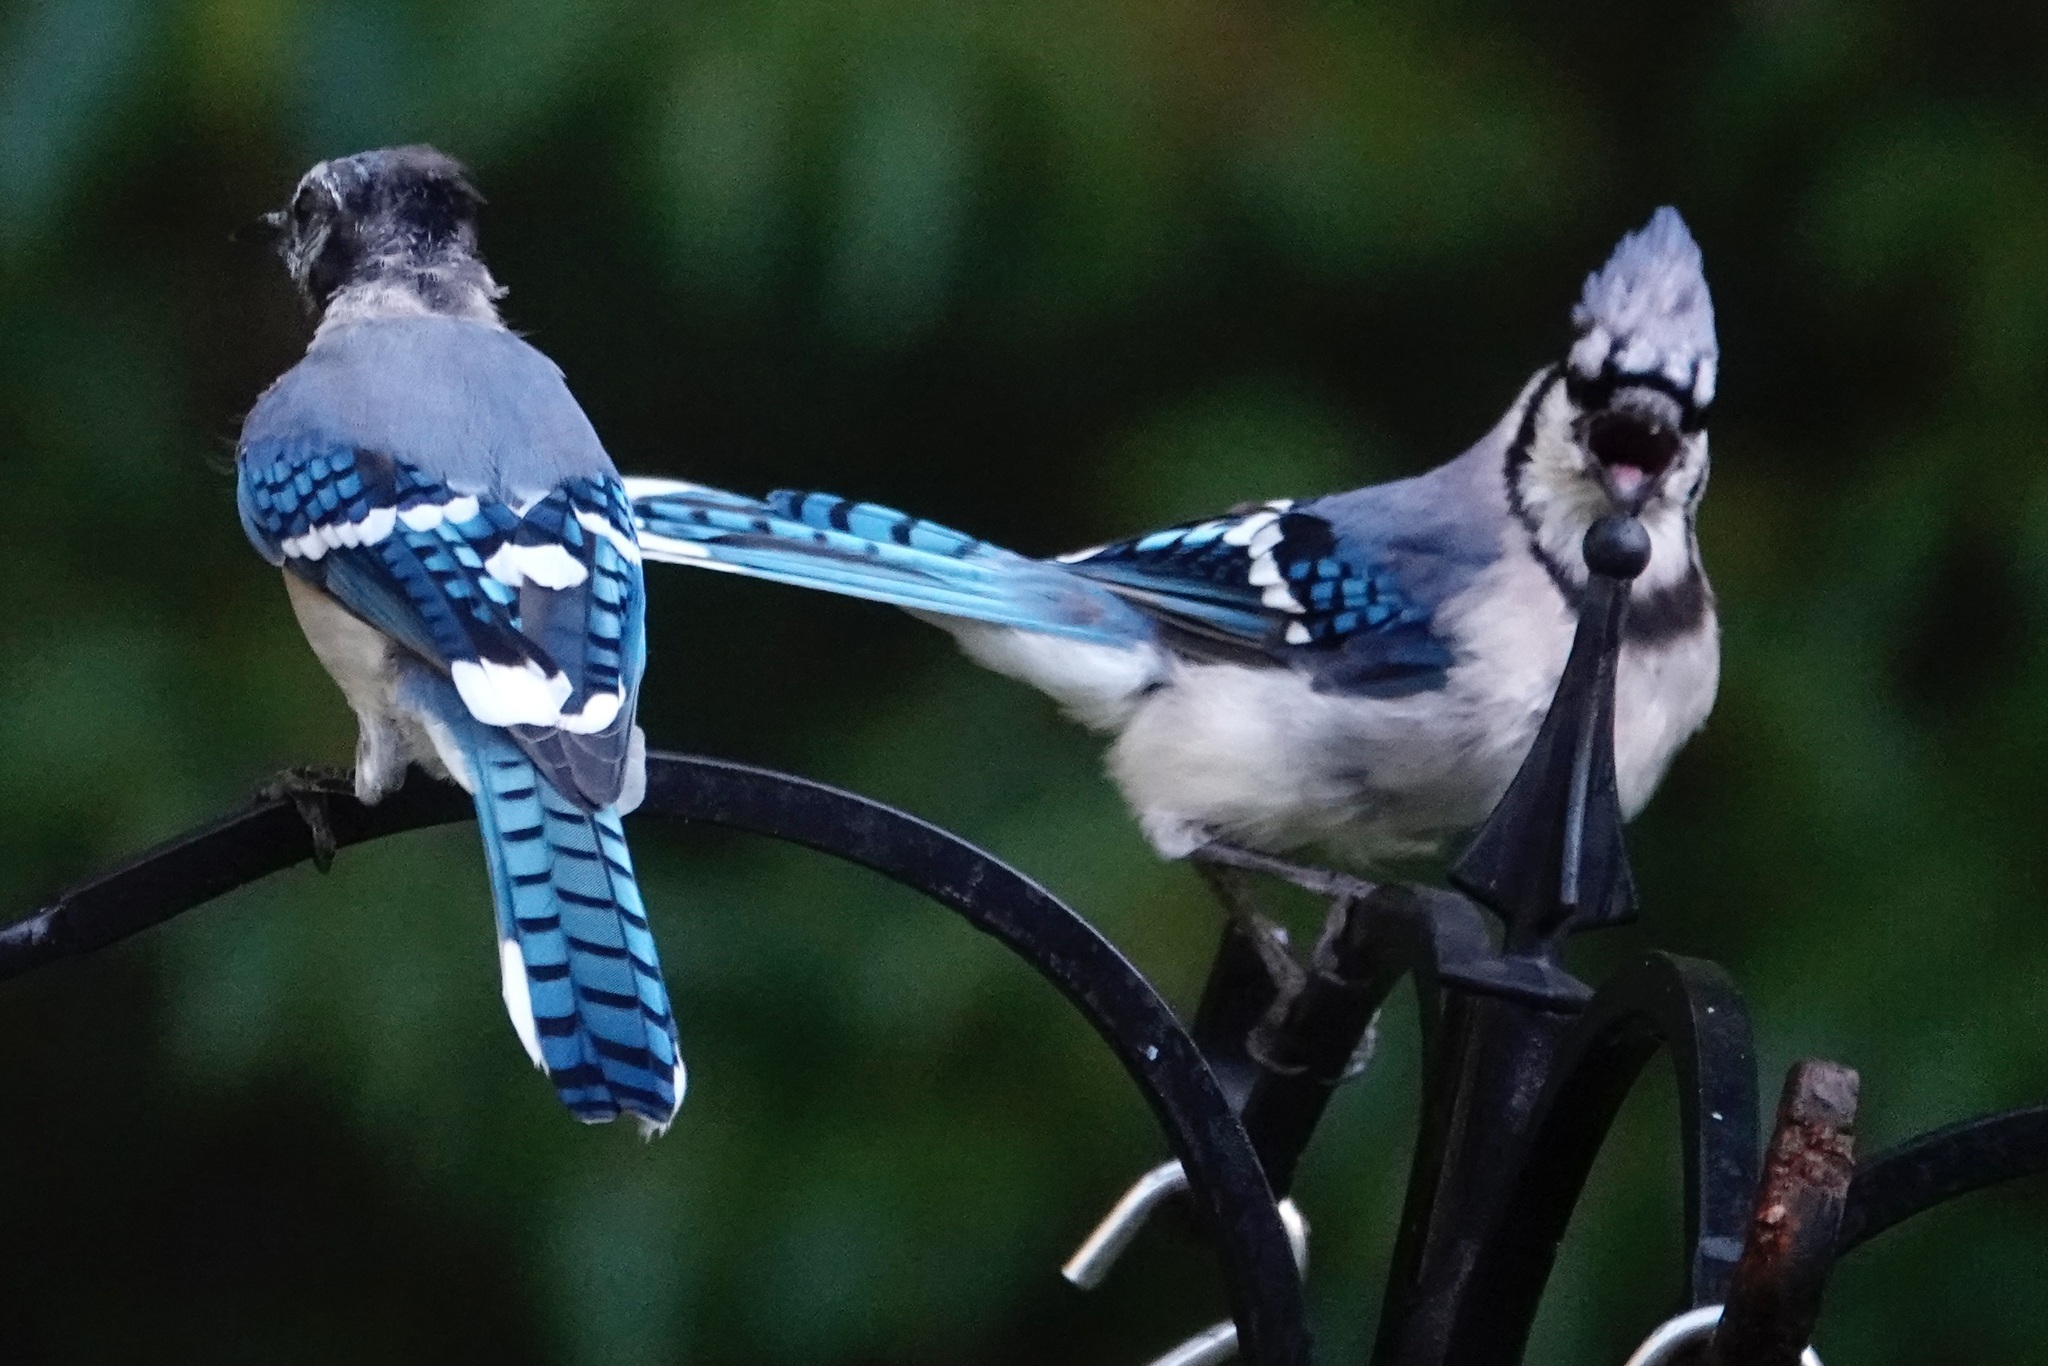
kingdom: Animalia
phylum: Chordata
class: Aves
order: Passeriformes
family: Corvidae
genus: Cyanocitta
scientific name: Cyanocitta cristata
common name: Blue jay
